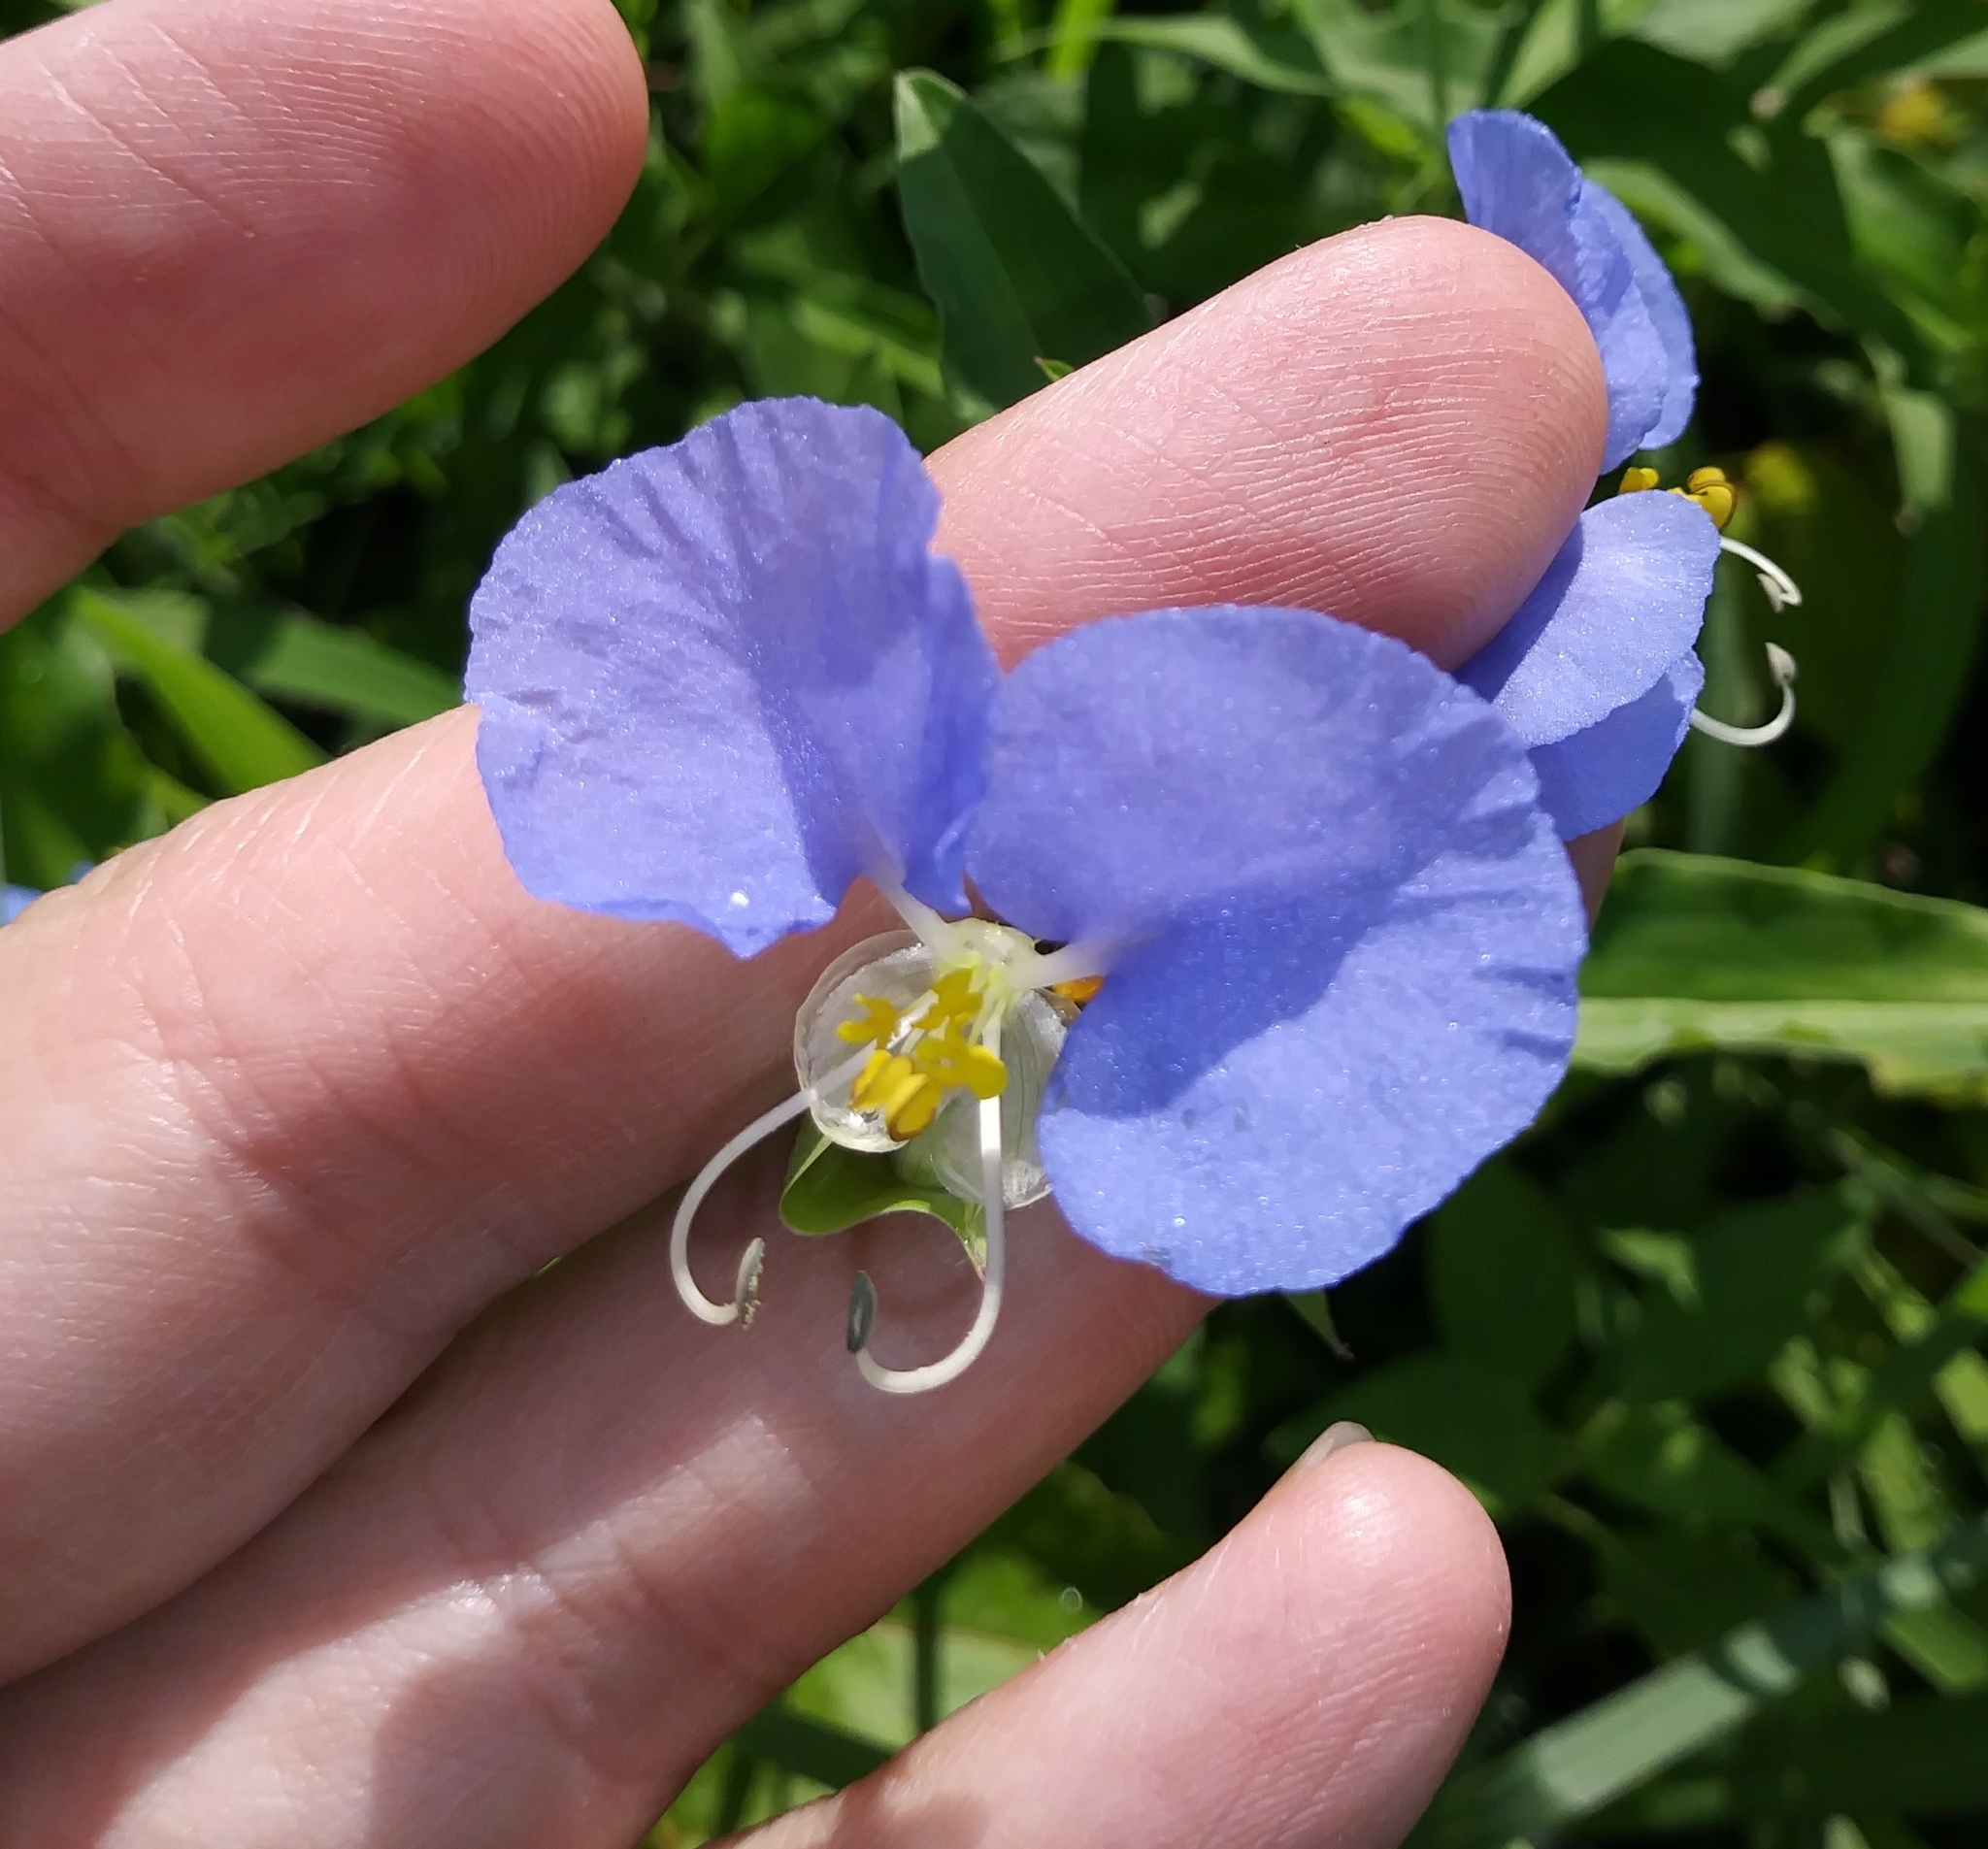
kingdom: Plantae
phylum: Tracheophyta
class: Liliopsida
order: Commelinales
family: Commelinaceae
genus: Commelina
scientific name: Commelina erecta
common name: Blousel blommetjie
